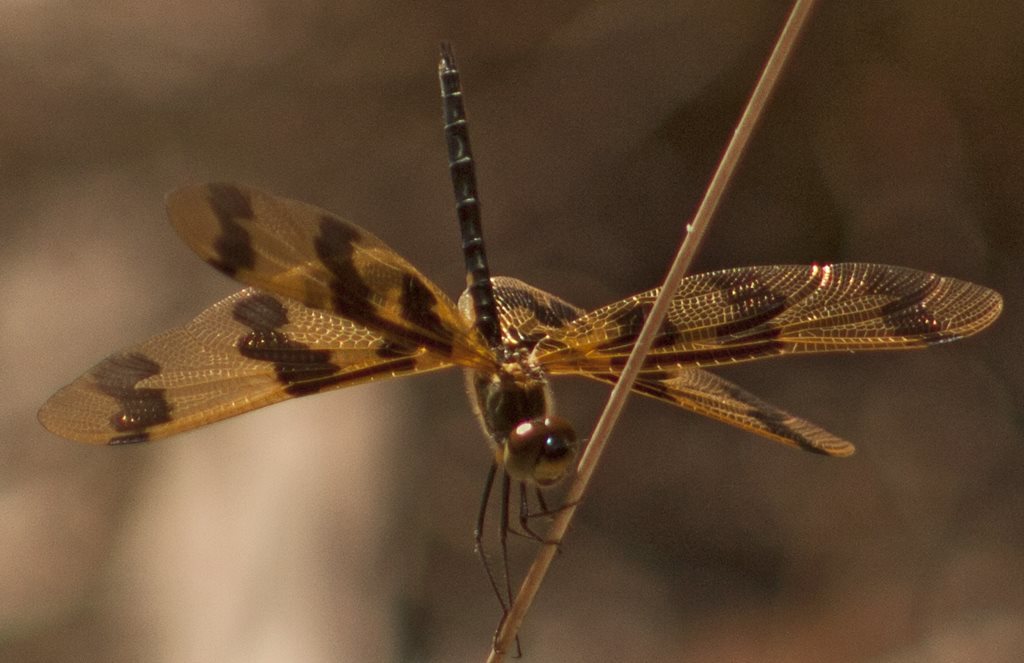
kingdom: Animalia
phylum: Arthropoda
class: Insecta
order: Odonata
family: Libellulidae
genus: Rhyothemis
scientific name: Rhyothemis graphiptera
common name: Graphic flutterer
